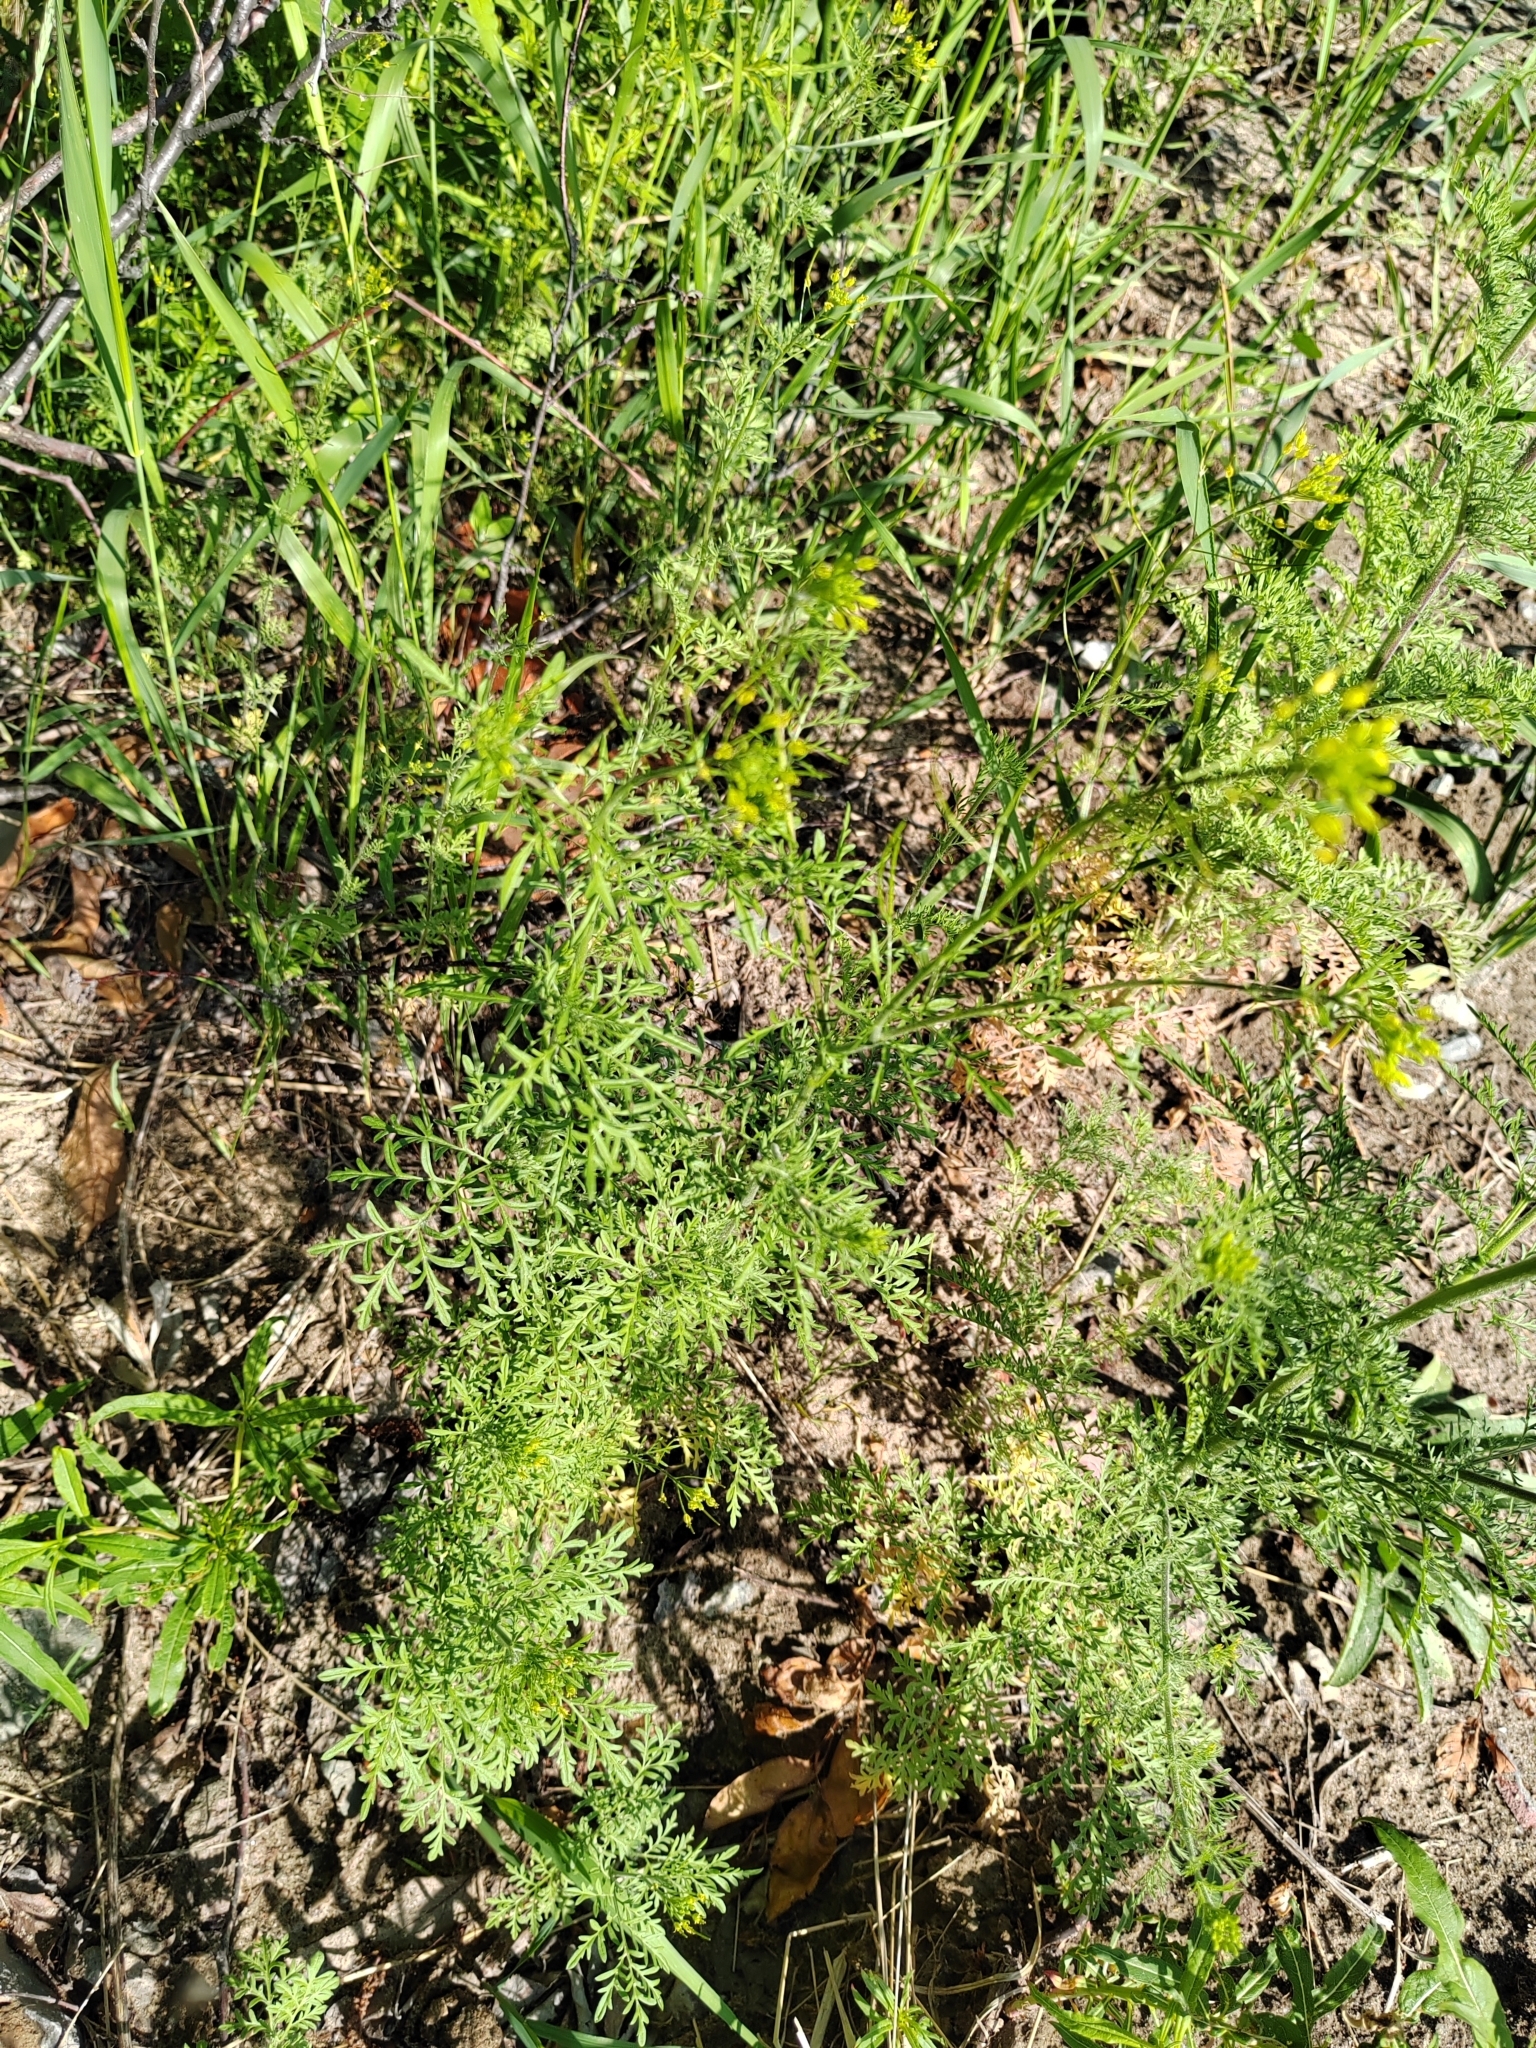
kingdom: Plantae
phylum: Tracheophyta
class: Magnoliopsida
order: Brassicales
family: Brassicaceae
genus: Descurainia
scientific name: Descurainia sophia
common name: Flixweed
